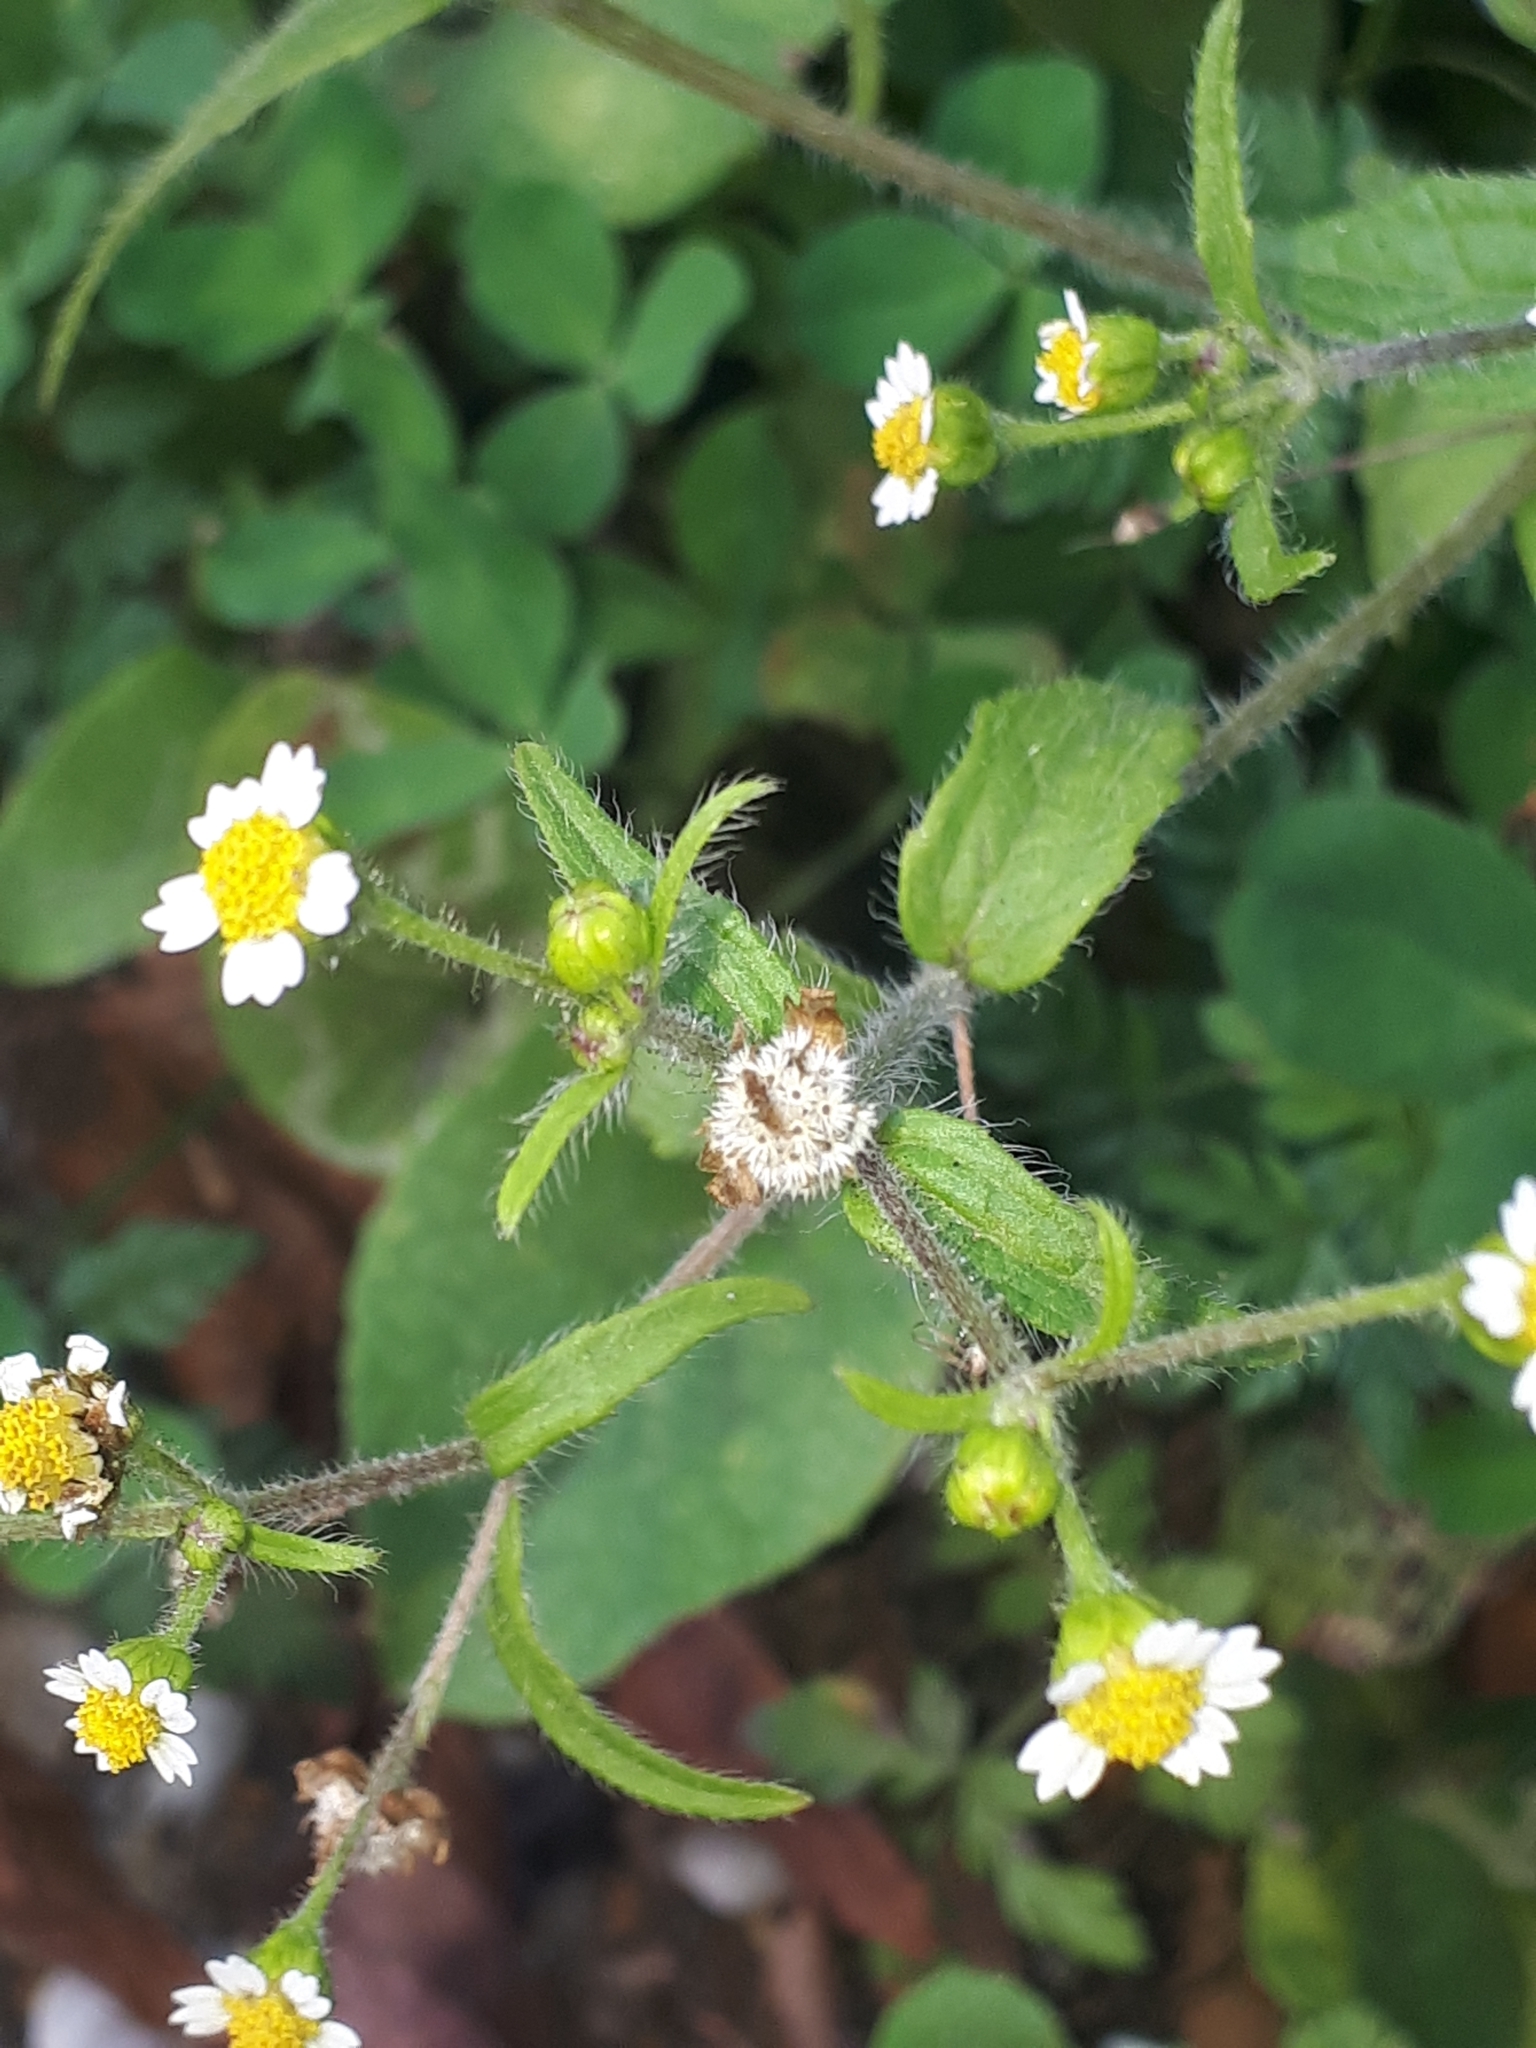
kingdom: Plantae
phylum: Tracheophyta
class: Magnoliopsida
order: Asterales
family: Asteraceae
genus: Galinsoga
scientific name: Galinsoga quadriradiata
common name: Shaggy soldier
